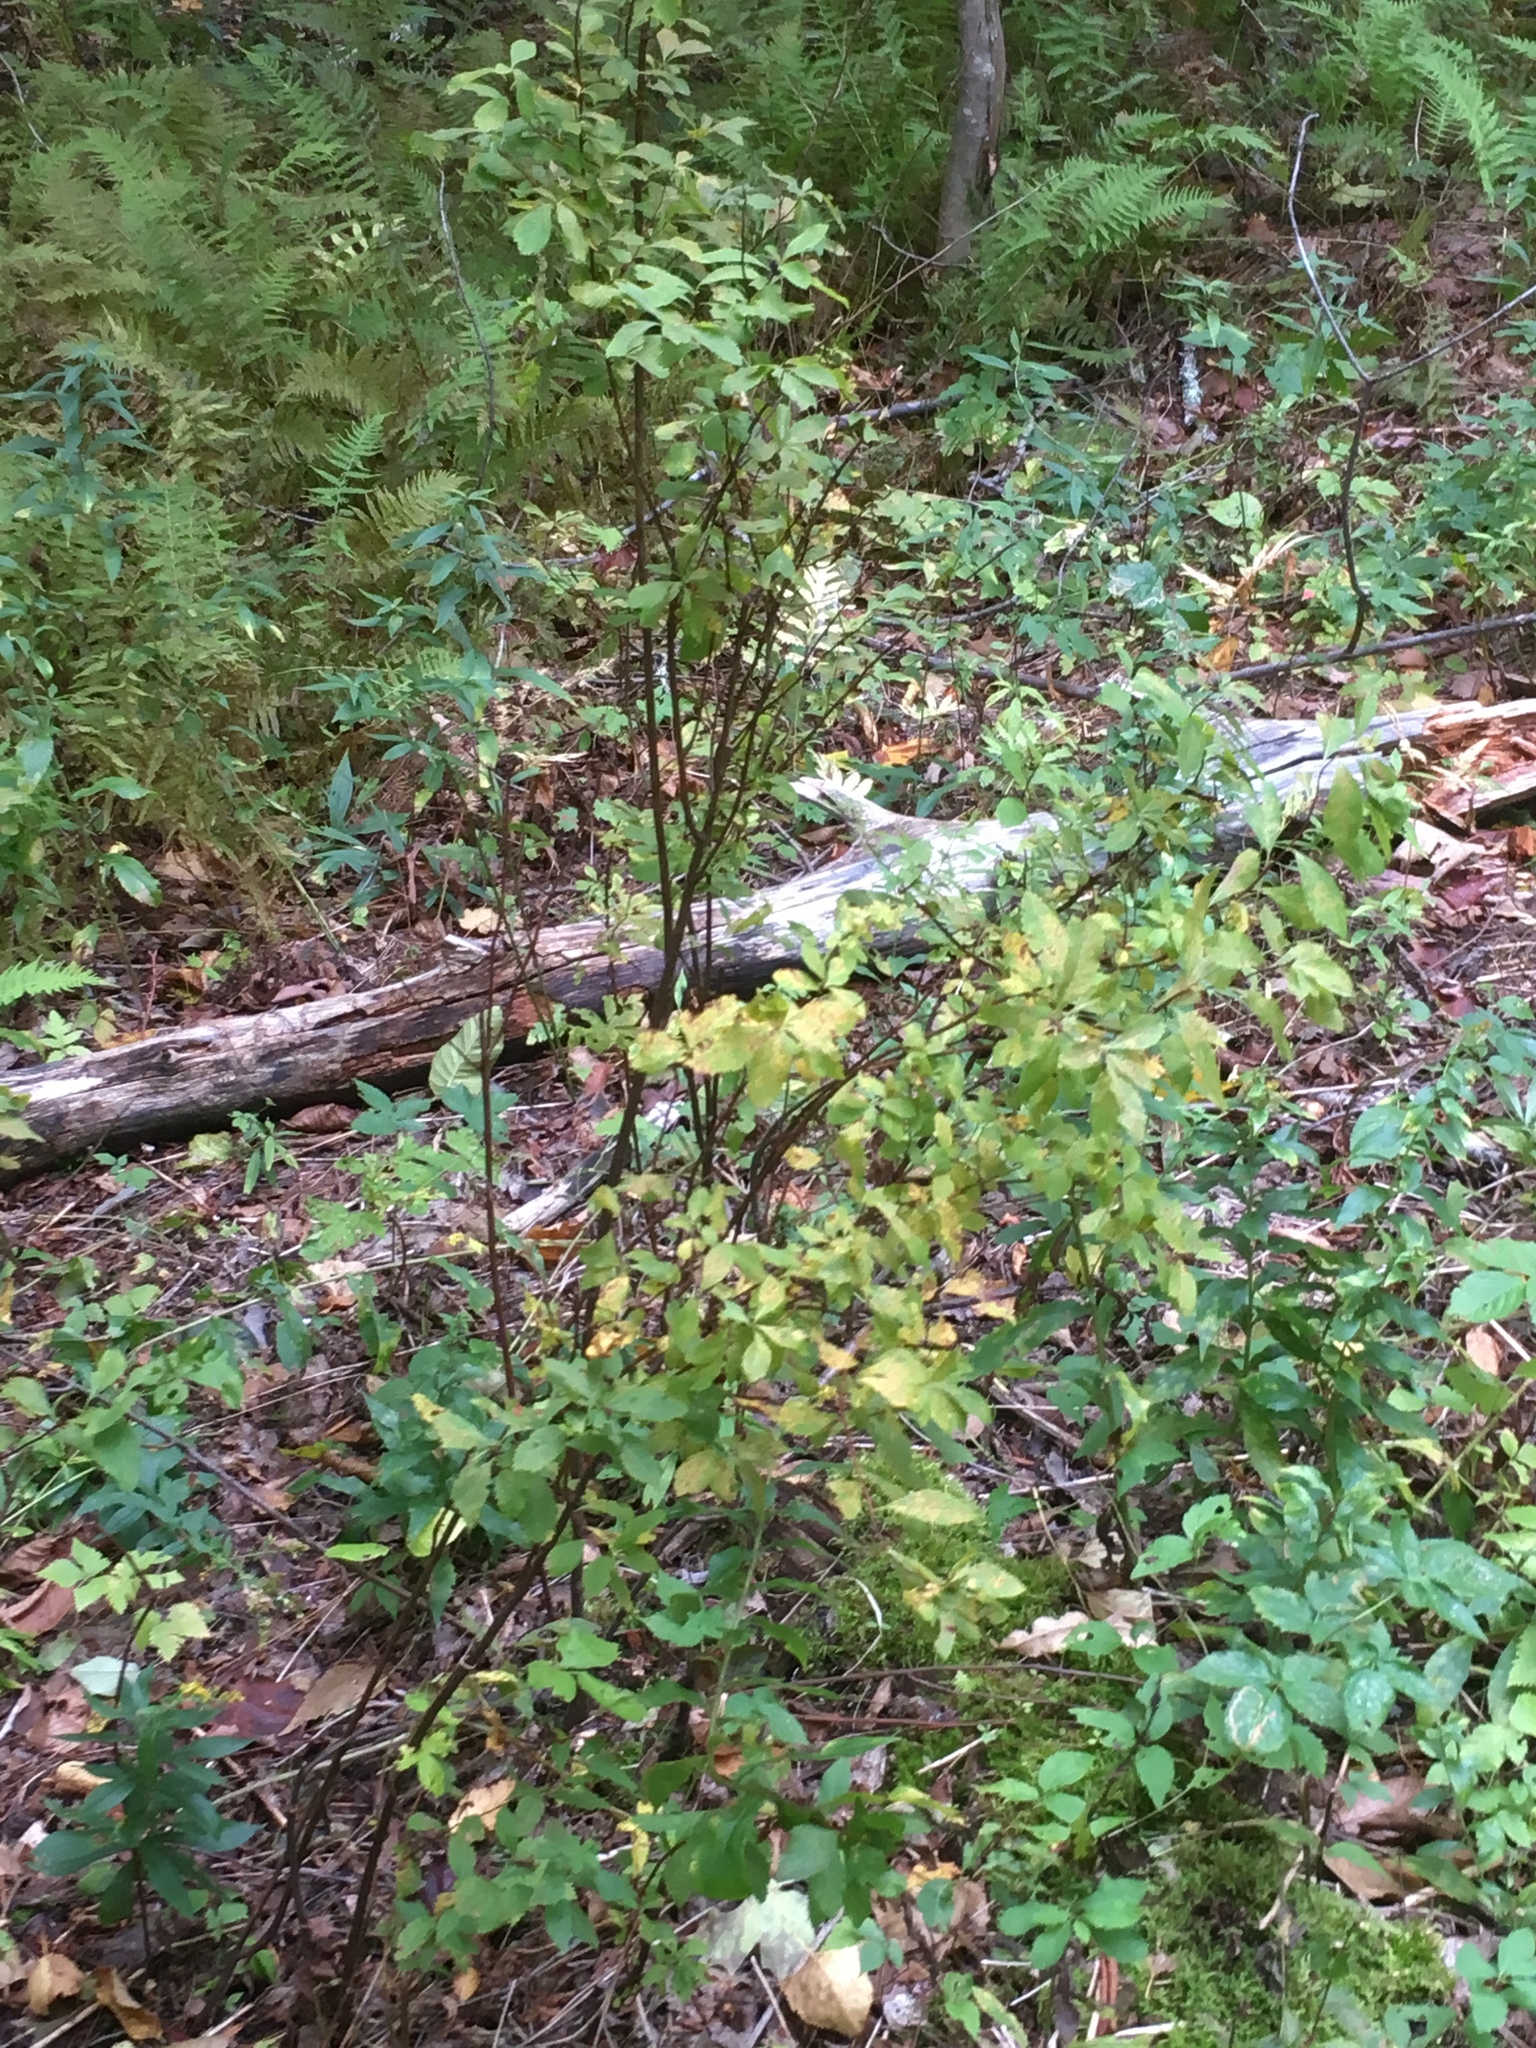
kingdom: Plantae
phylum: Tracheophyta
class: Magnoliopsida
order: Rosales
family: Rosaceae
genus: Spiraea
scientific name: Spiraea alba
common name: Pale bridewort
